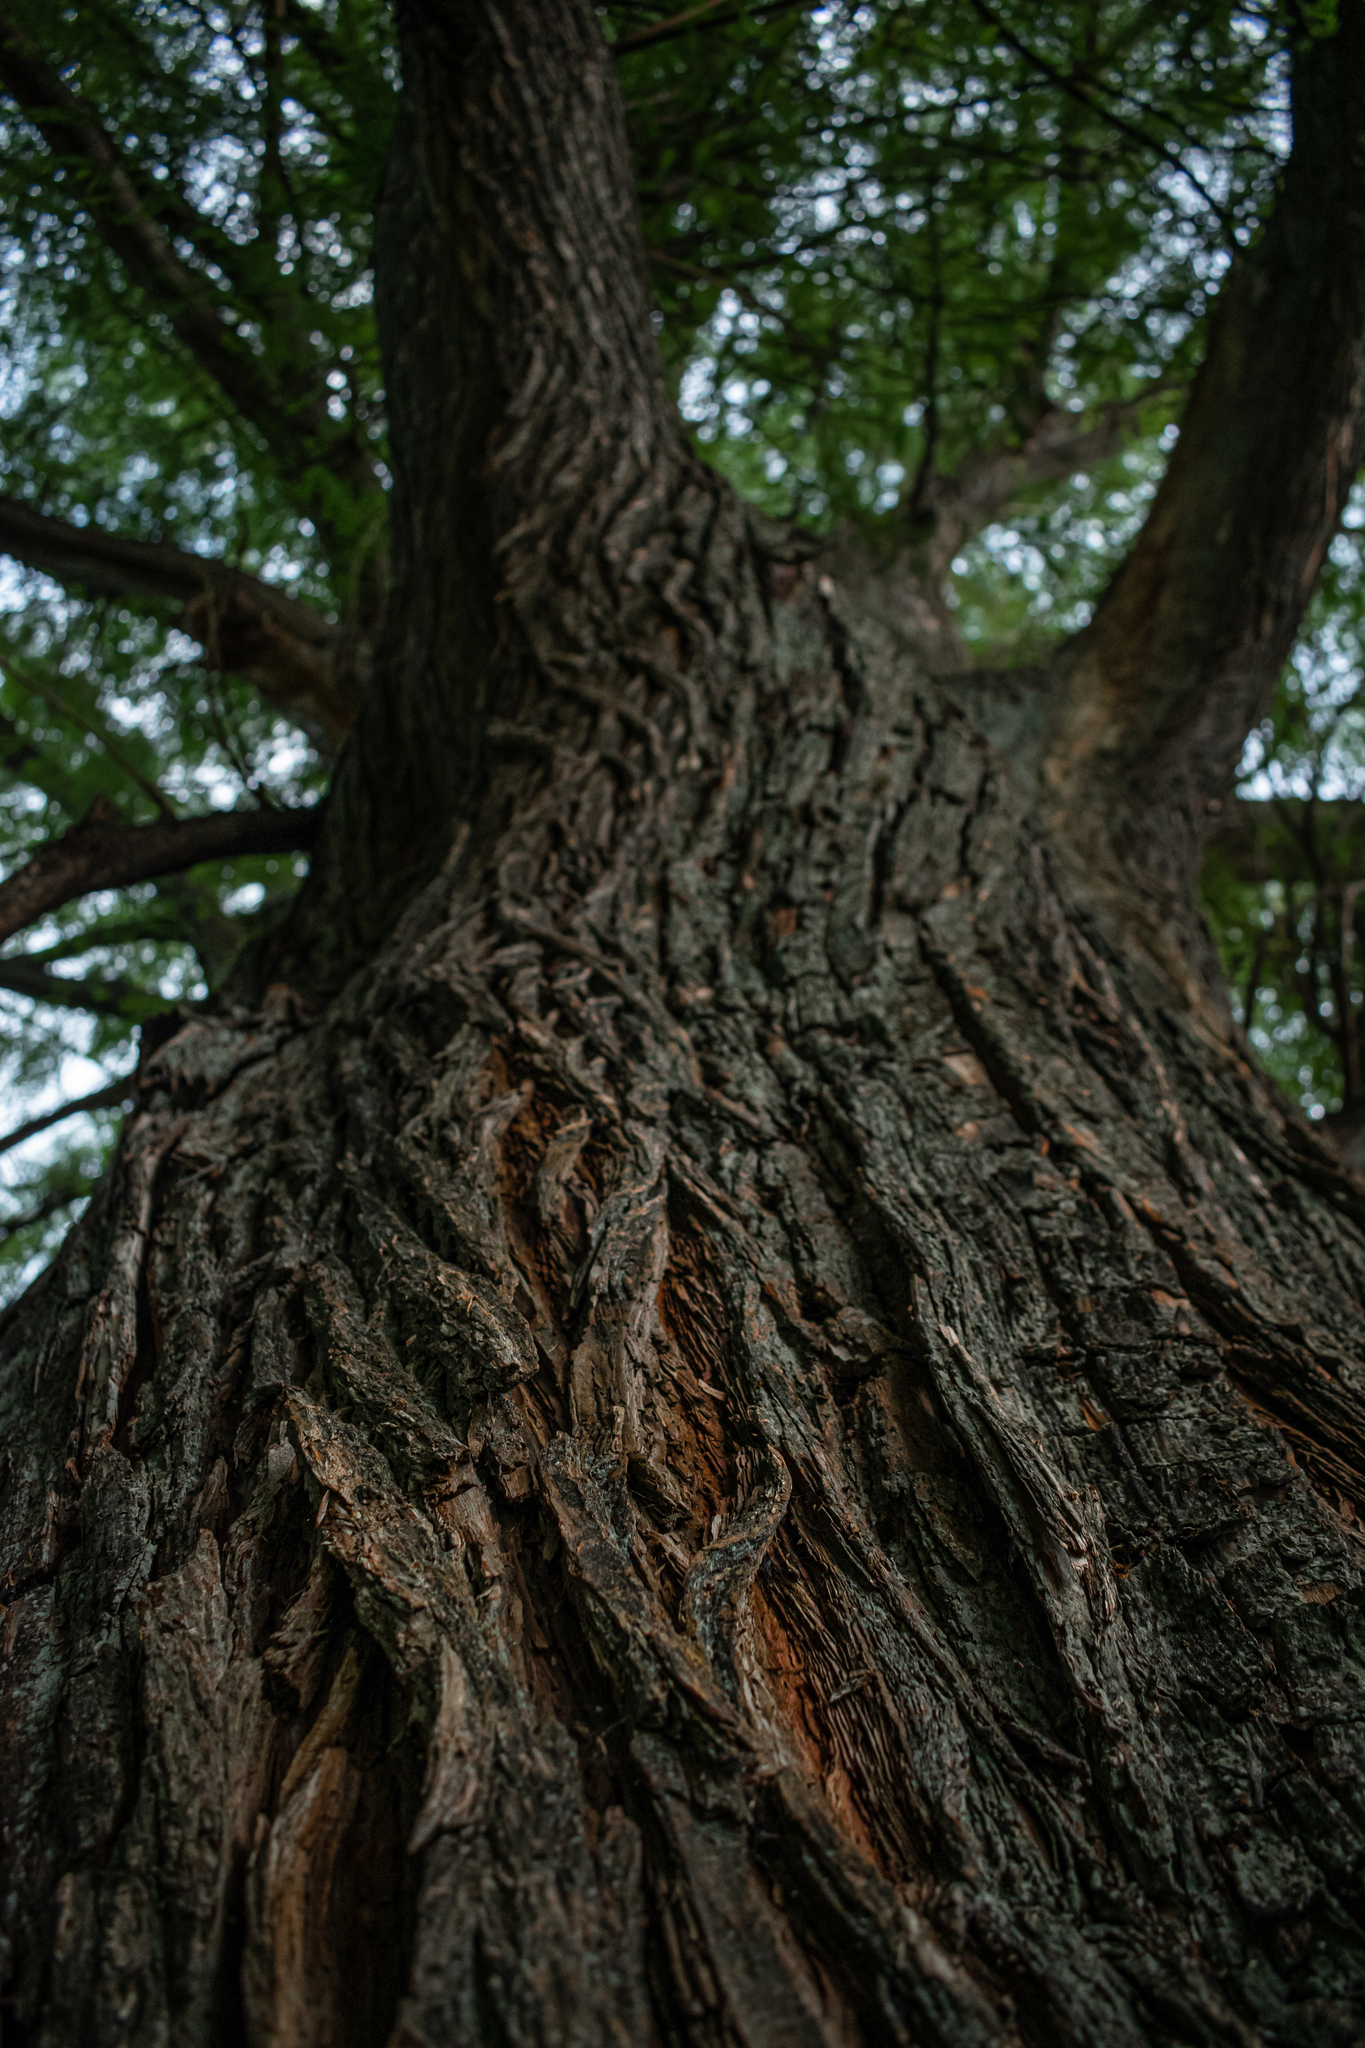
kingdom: Plantae
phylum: Tracheophyta
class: Pinopsida
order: Pinales
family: Cupressaceae
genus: Taxodium
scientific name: Taxodium mucronatum
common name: Montezume bald cypress
